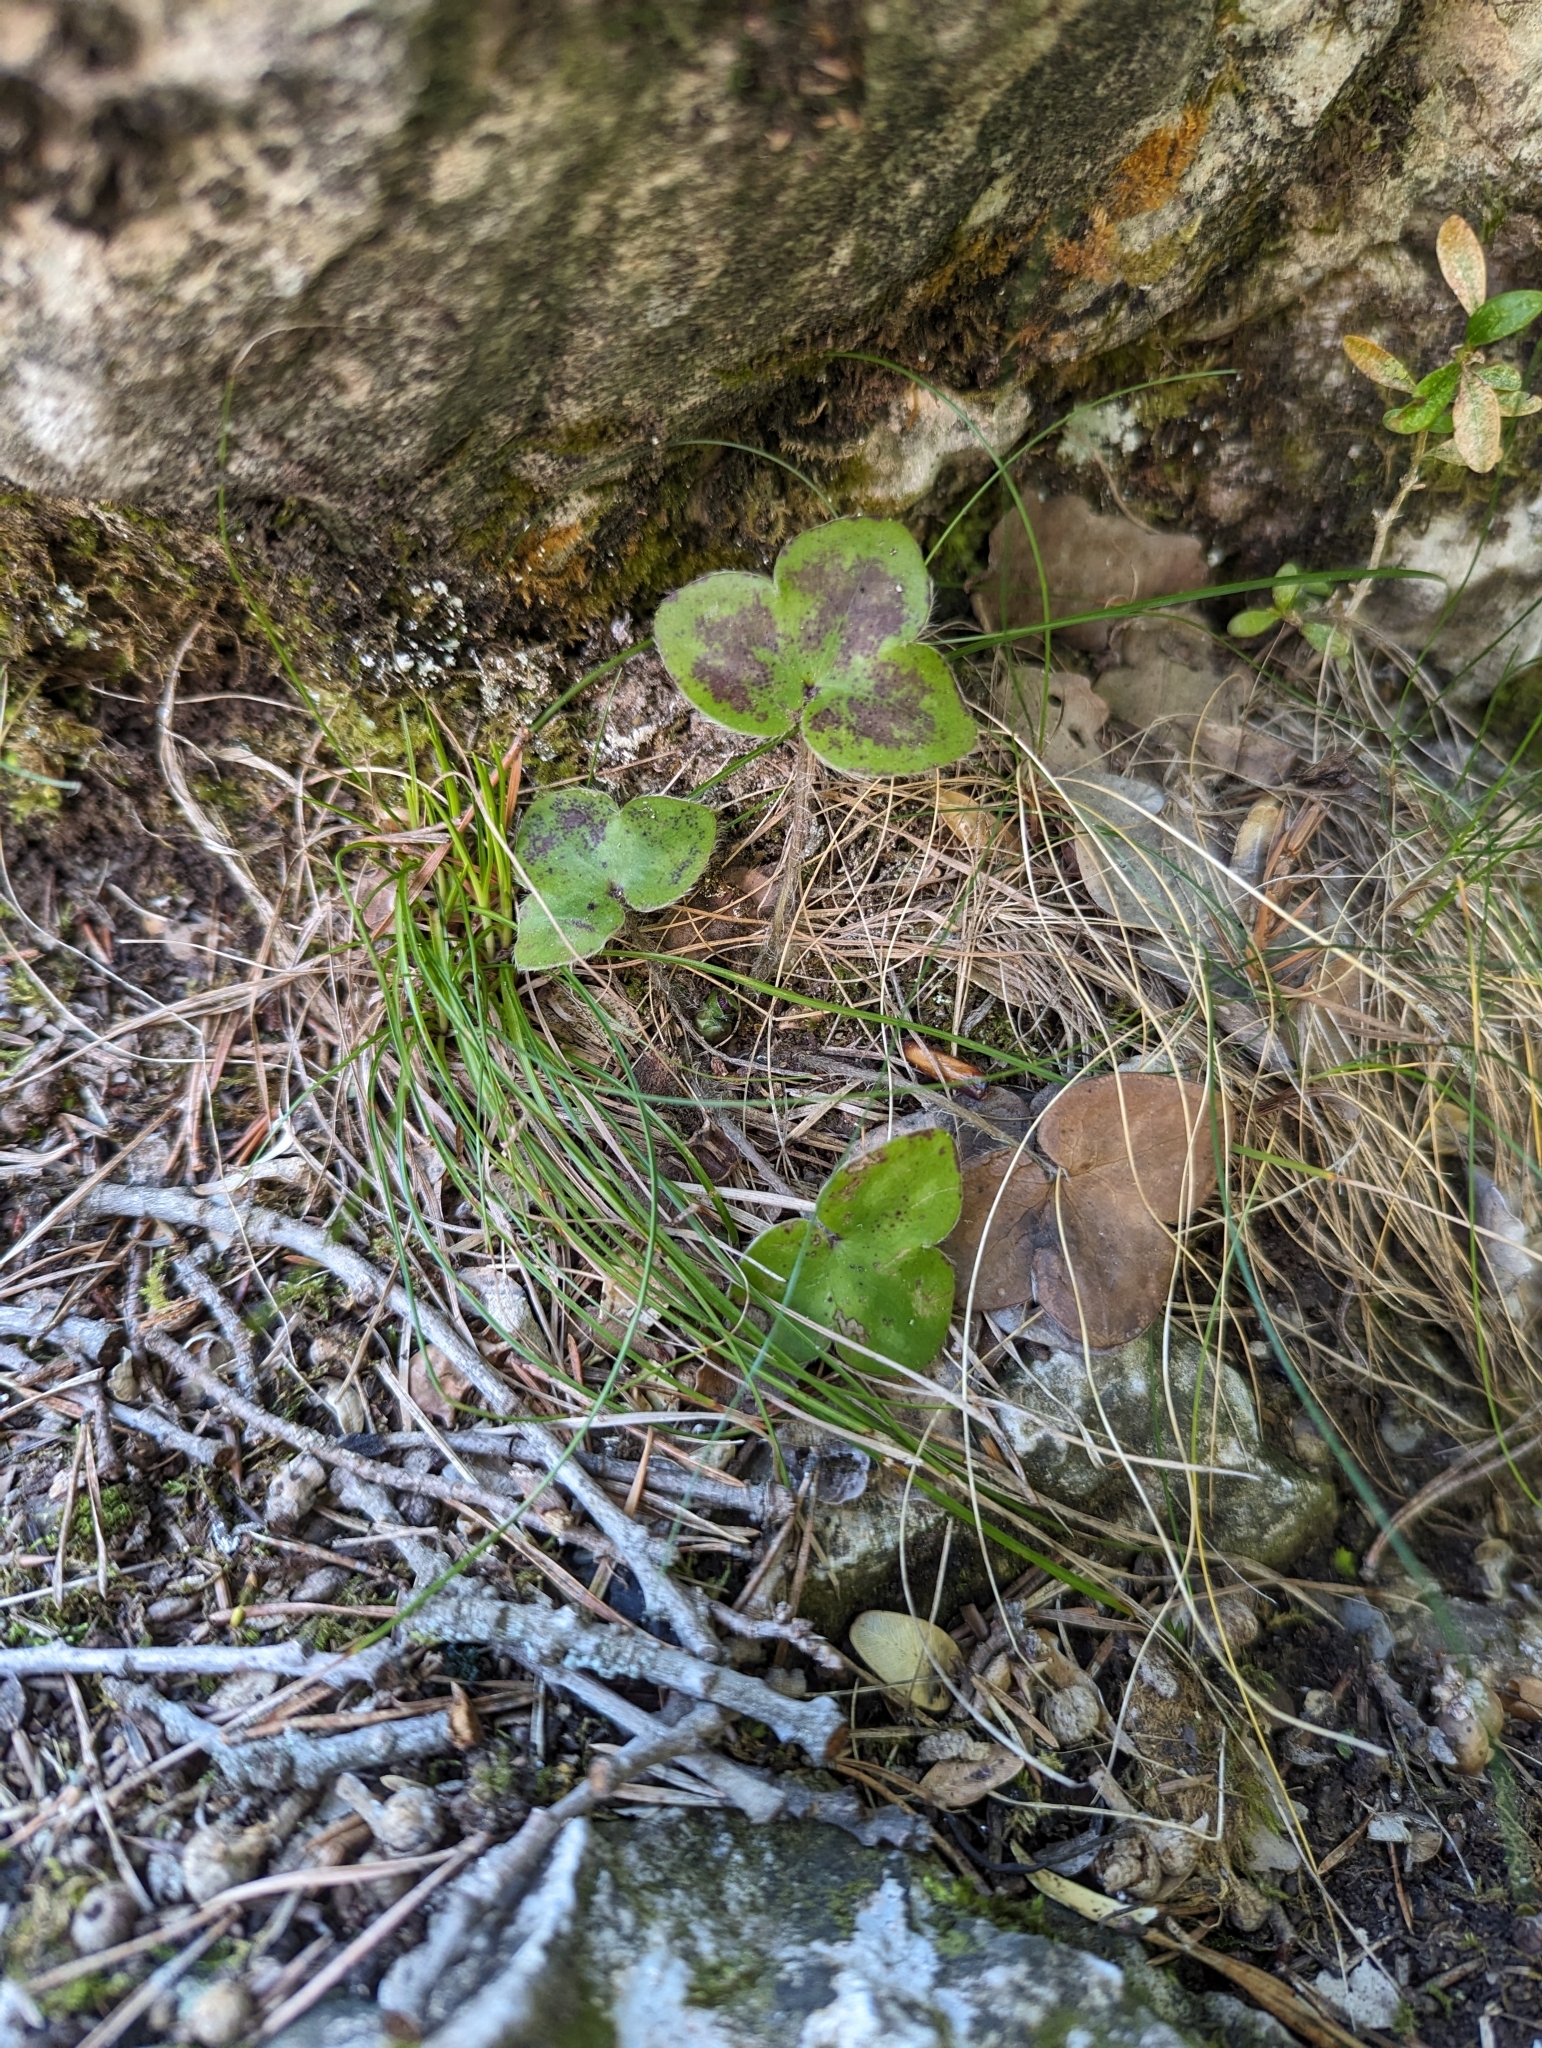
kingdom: Plantae
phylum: Tracheophyta
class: Magnoliopsida
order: Ranunculales
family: Ranunculaceae
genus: Hepatica
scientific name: Hepatica nobilis
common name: Liverleaf
